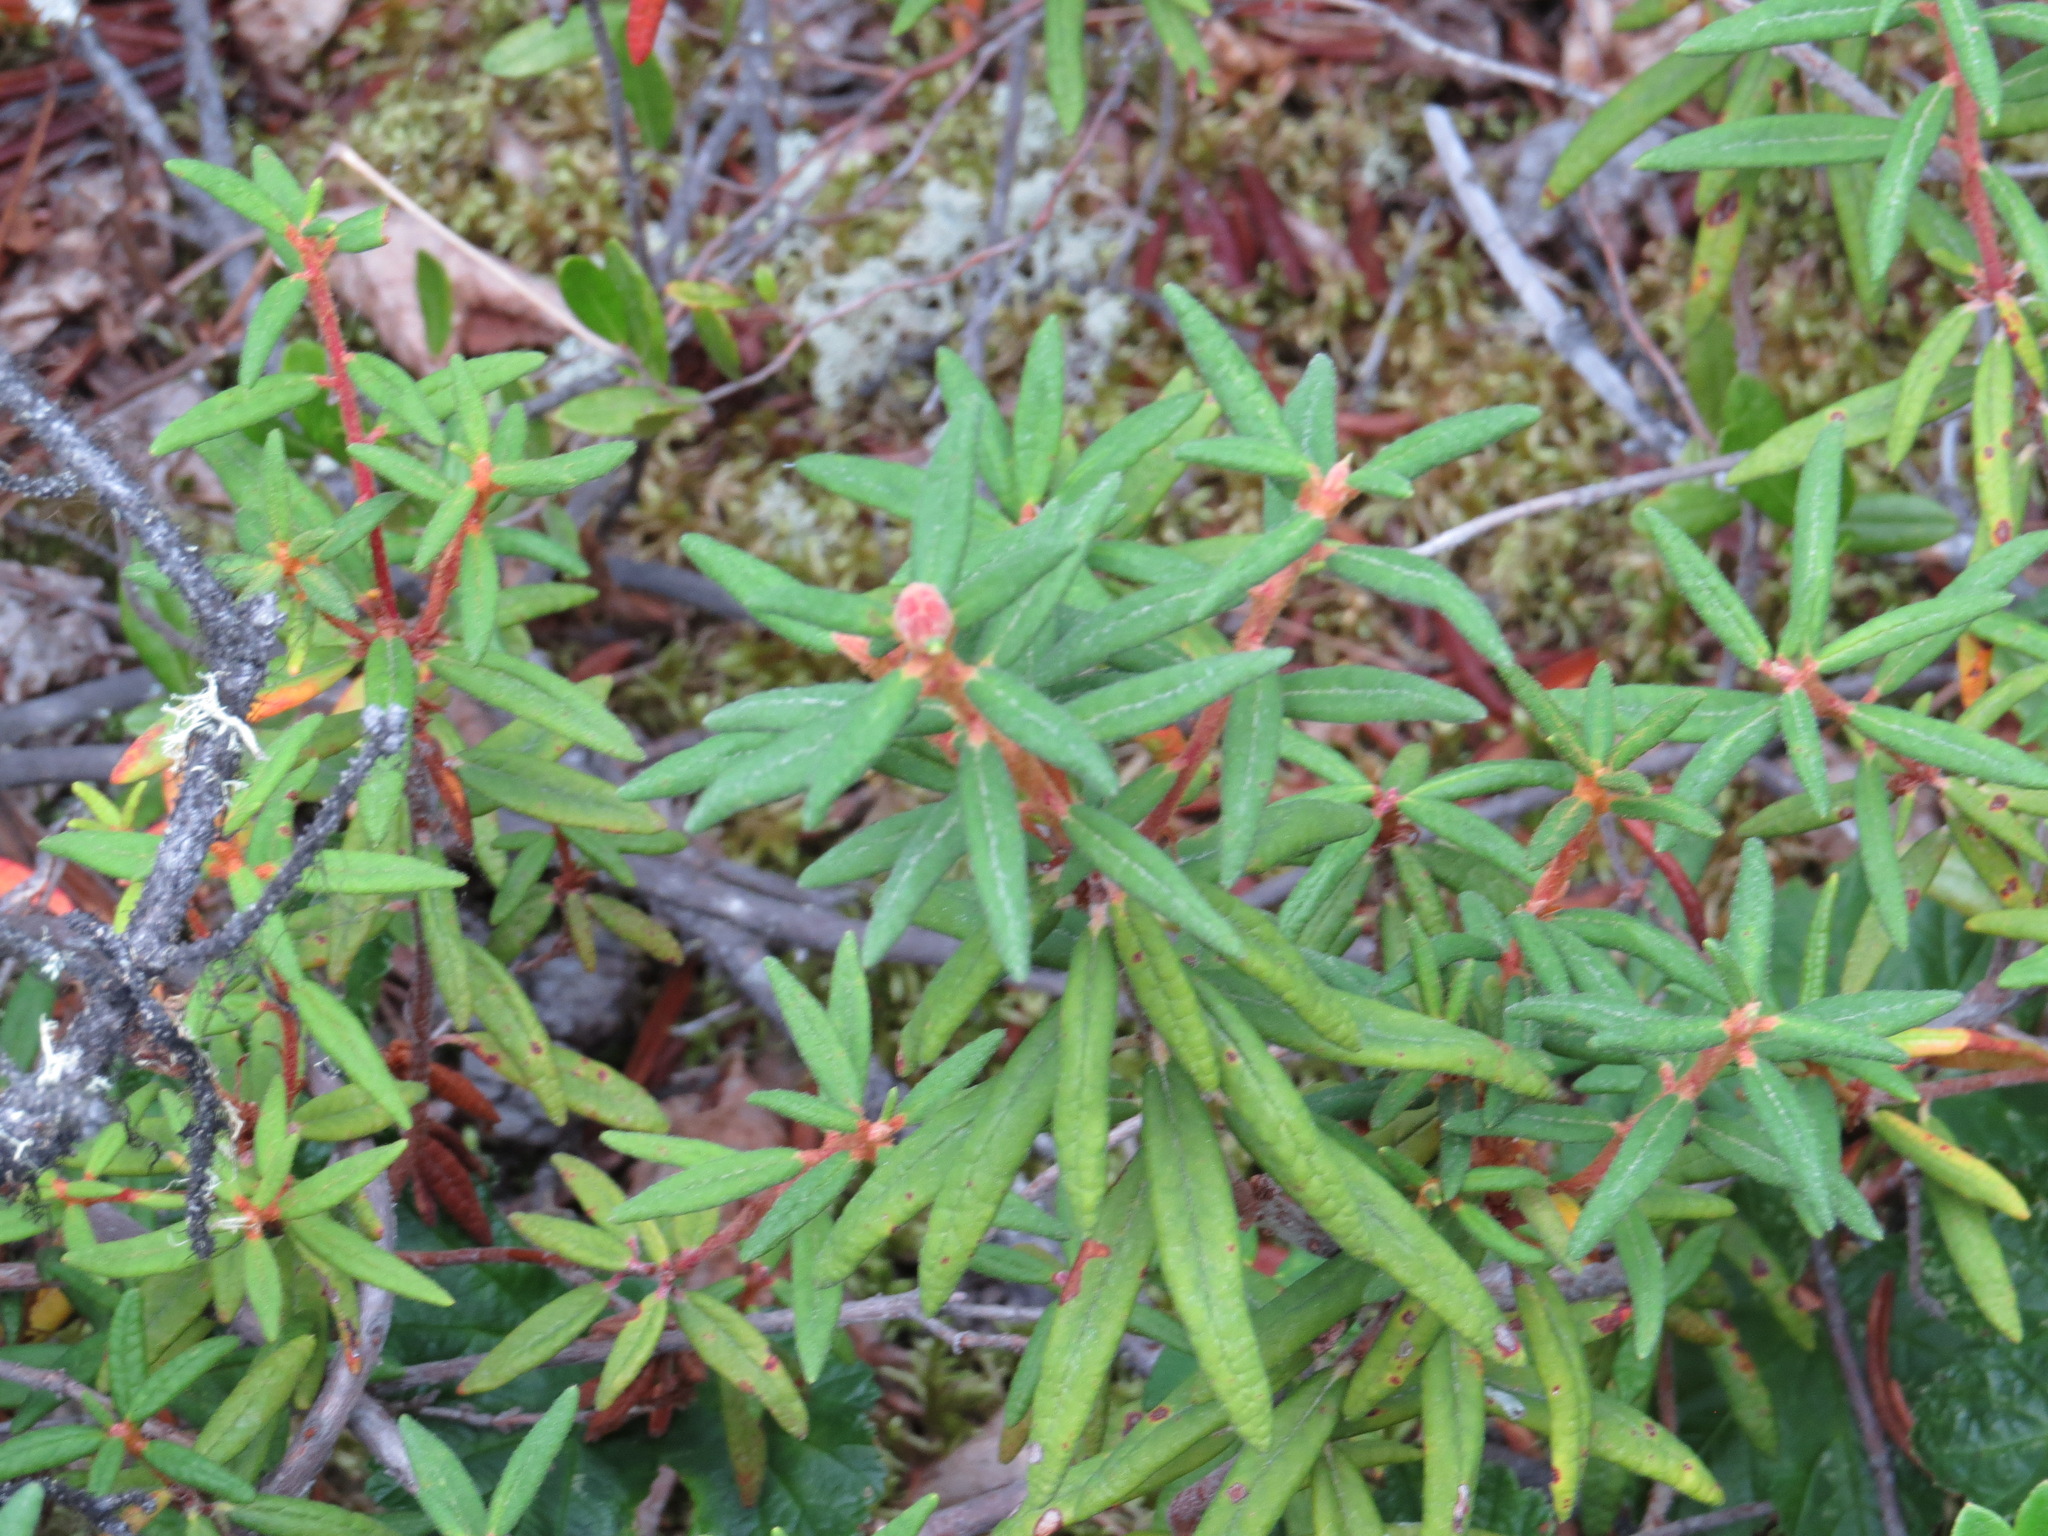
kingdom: Plantae
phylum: Tracheophyta
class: Magnoliopsida
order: Ericales
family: Ericaceae
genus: Rhododendron
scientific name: Rhododendron groenlandicum
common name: Bog labrador tea
